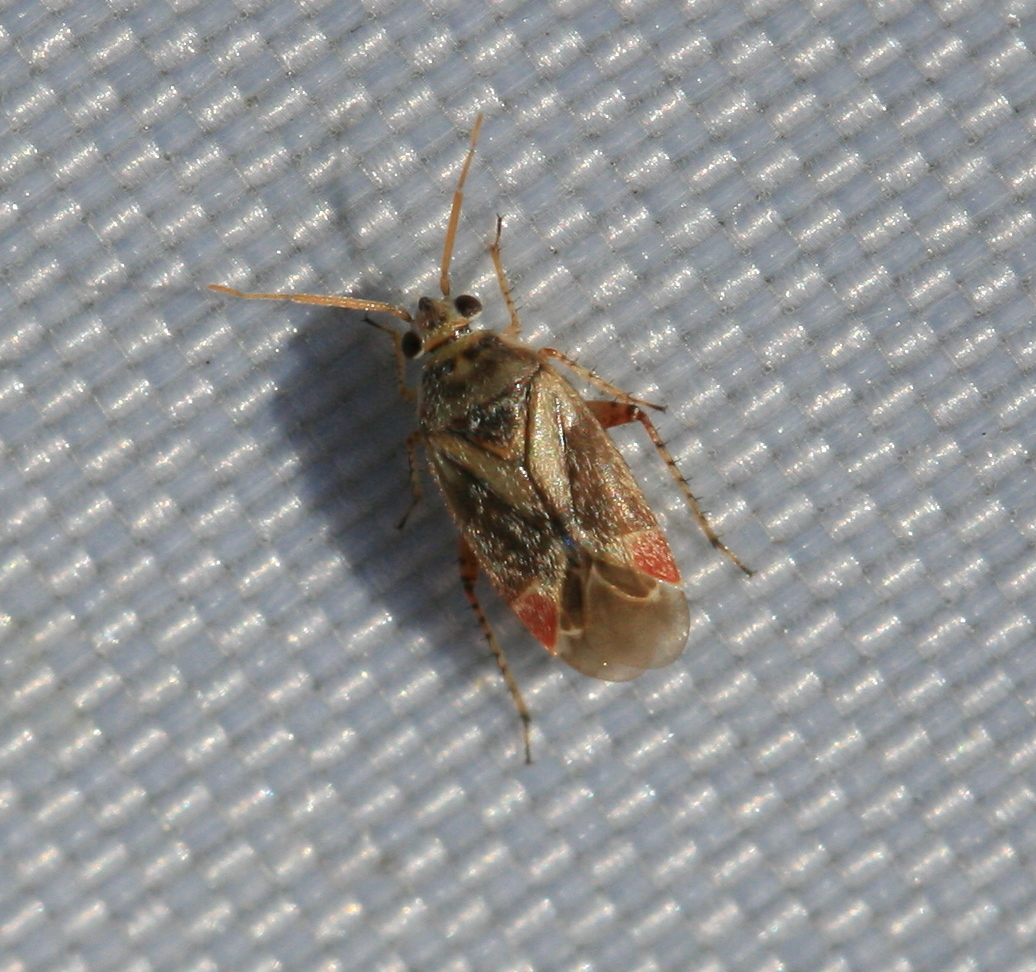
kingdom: Animalia
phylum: Arthropoda
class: Insecta
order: Hemiptera
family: Miridae
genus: Sthenarus
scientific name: Sthenarus rotermundi
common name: Leaf bug
